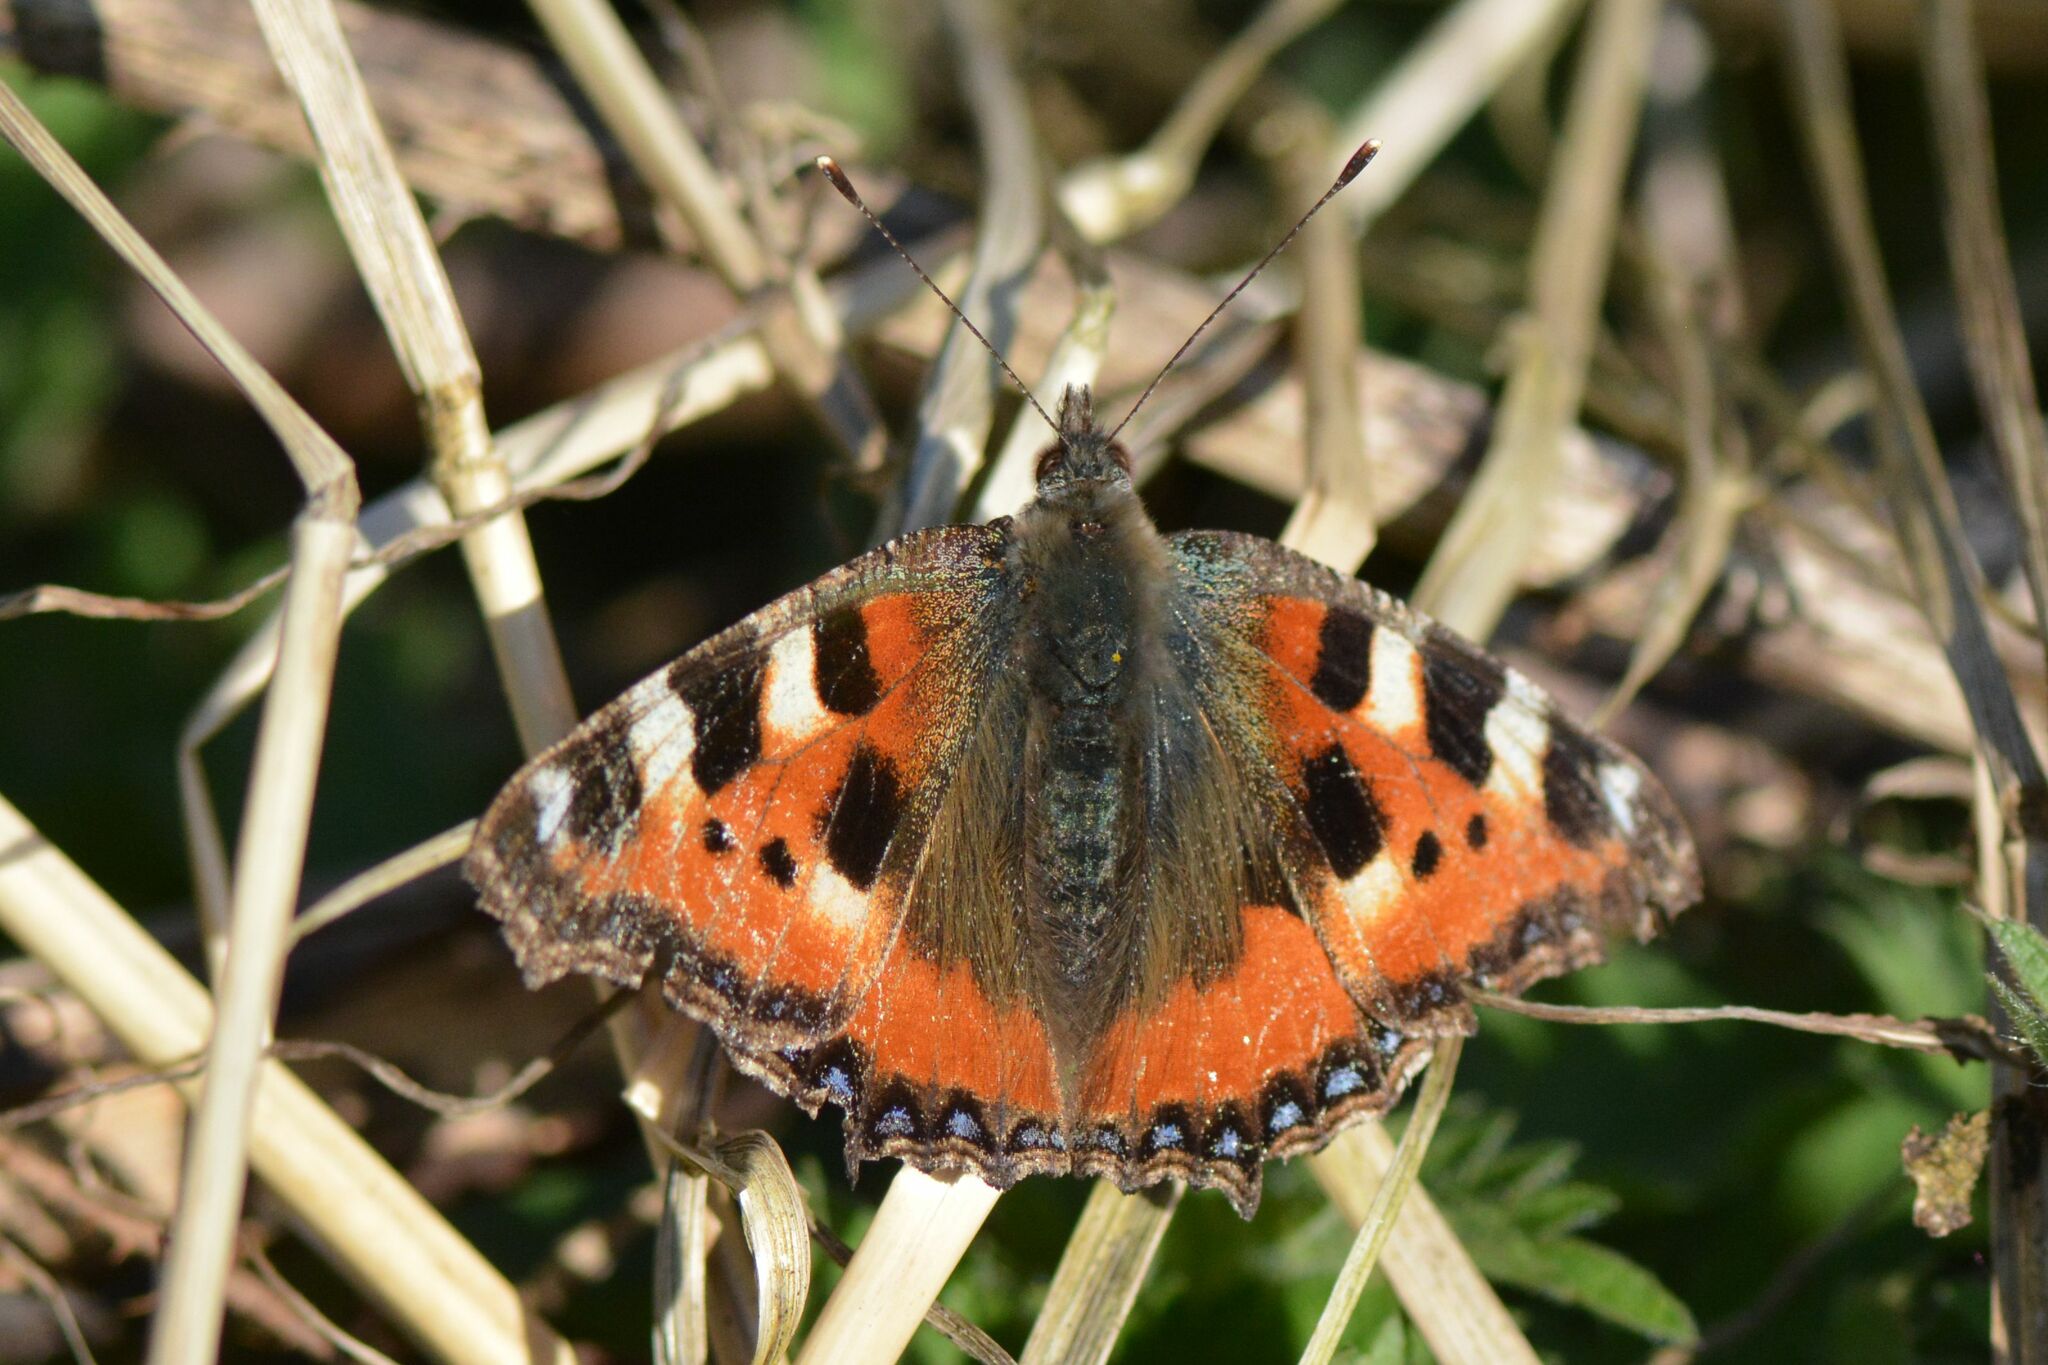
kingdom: Animalia
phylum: Arthropoda
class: Insecta
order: Lepidoptera
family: Nymphalidae
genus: Aglais
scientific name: Aglais urticae
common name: Small tortoiseshell
